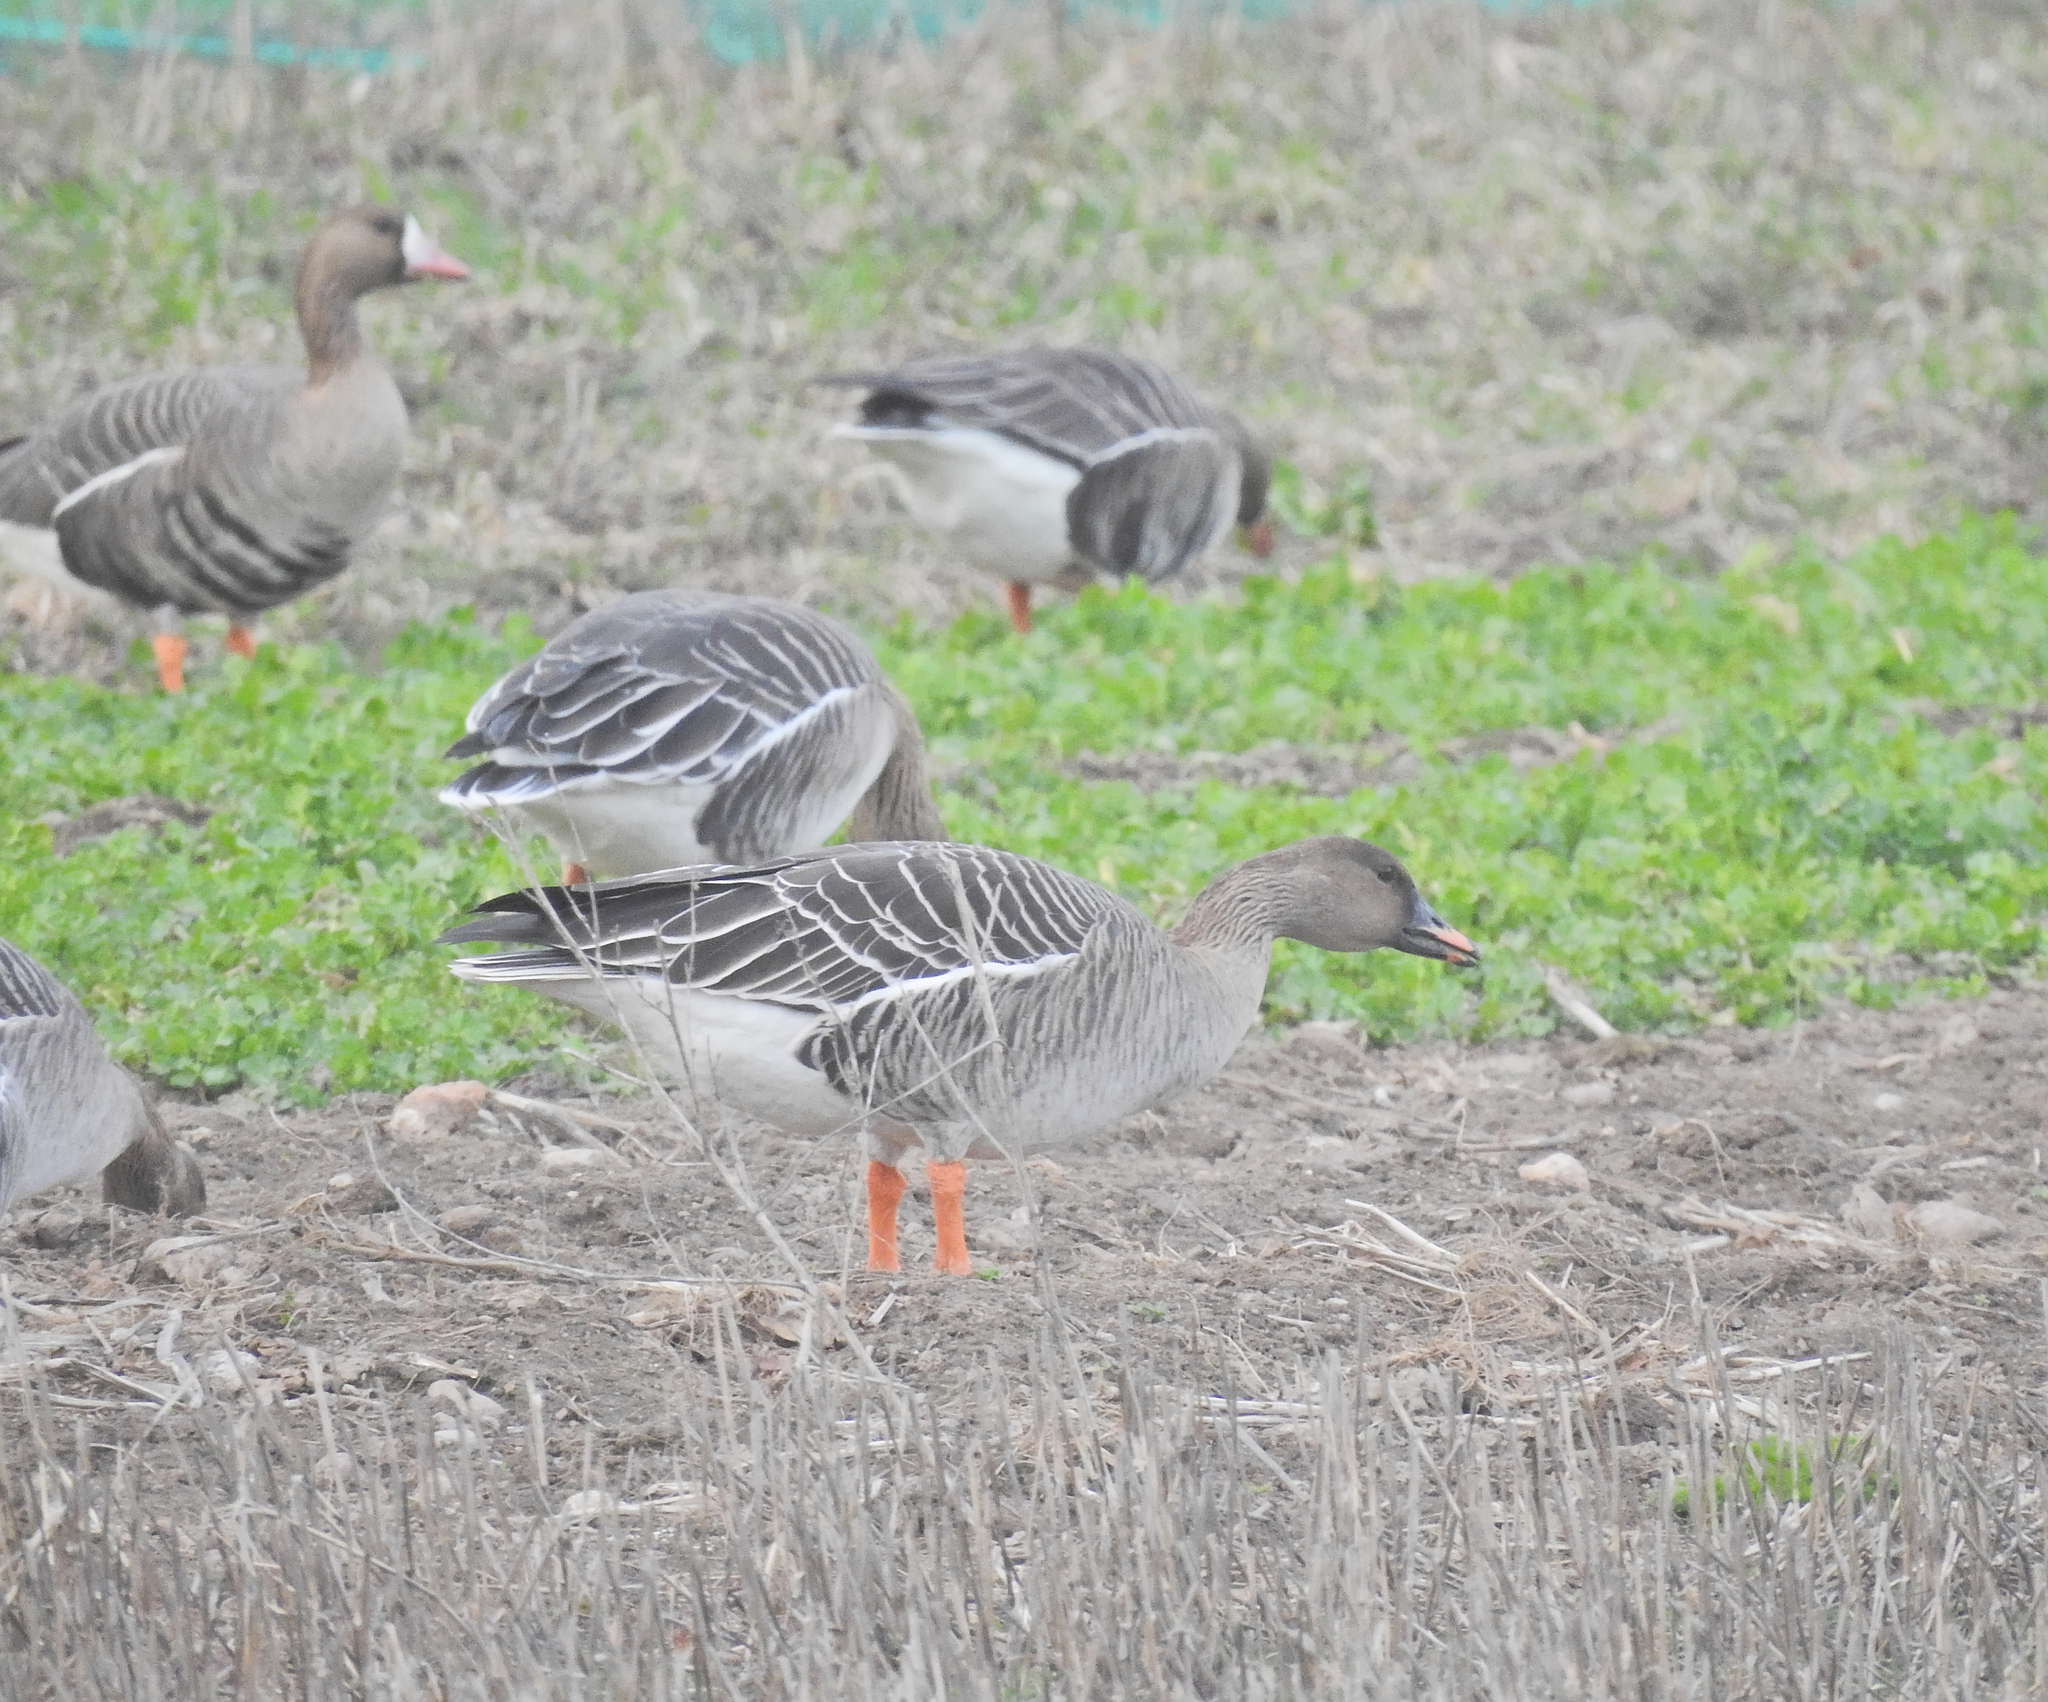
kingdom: Animalia
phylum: Chordata
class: Aves
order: Anseriformes
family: Anatidae
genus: Anser
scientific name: Anser serrirostris
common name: Tundra bean goose
